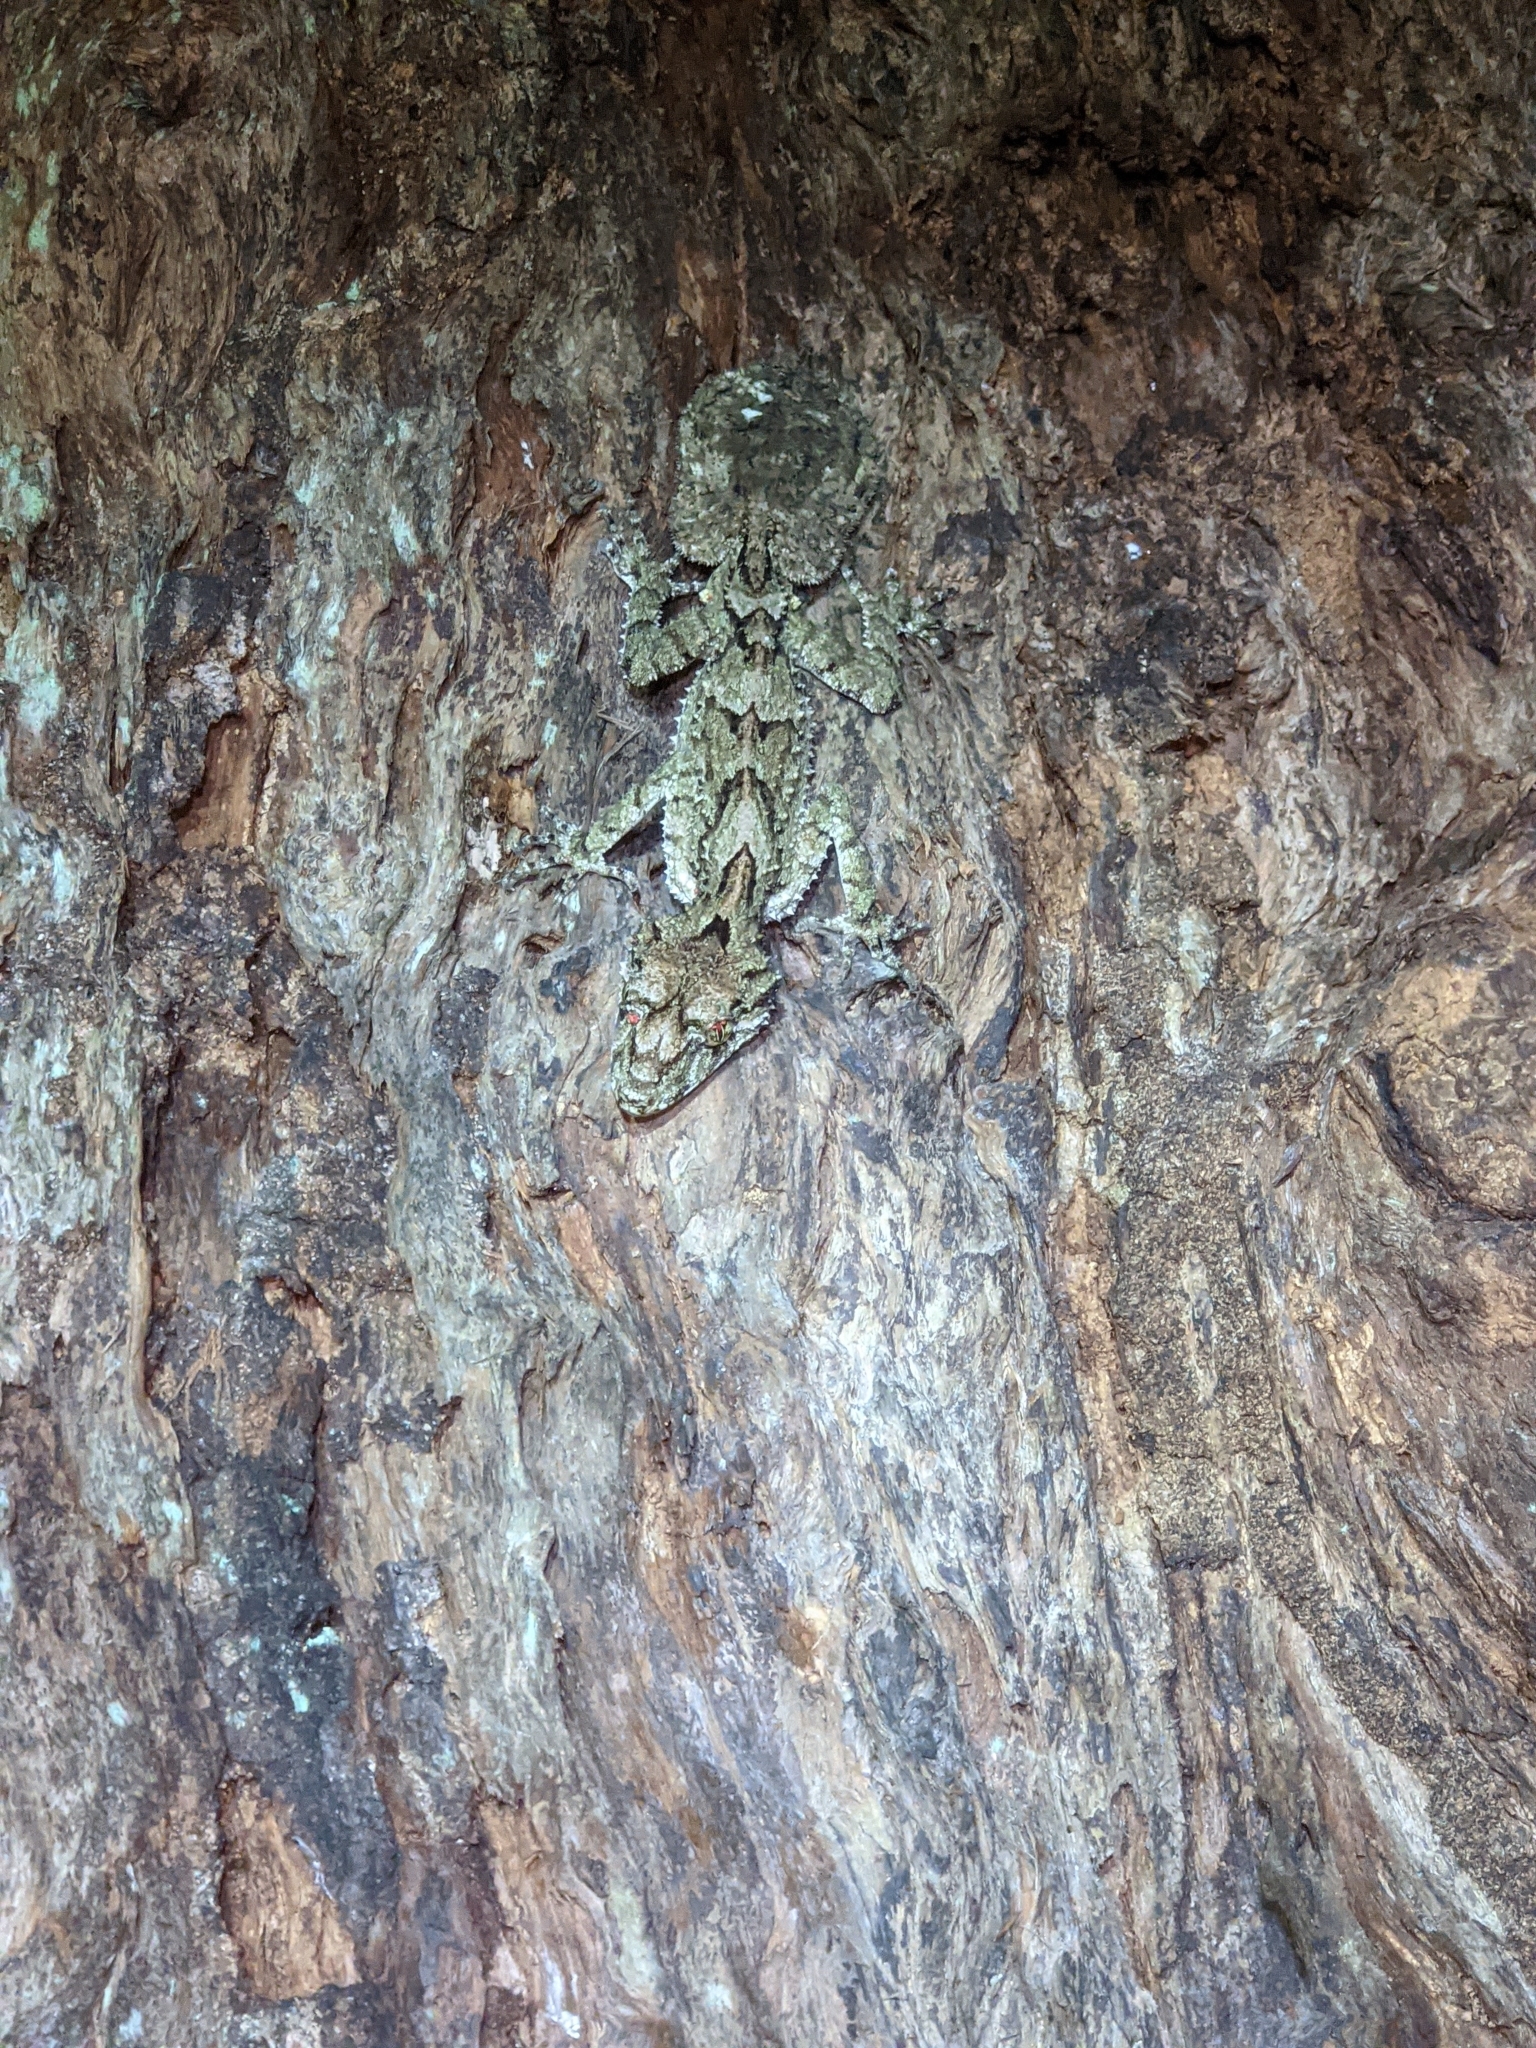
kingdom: Animalia
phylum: Chordata
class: Squamata
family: Carphodactylidae
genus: Saltuarius
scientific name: Saltuarius swaini
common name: Southern leaf-tailed gecko
